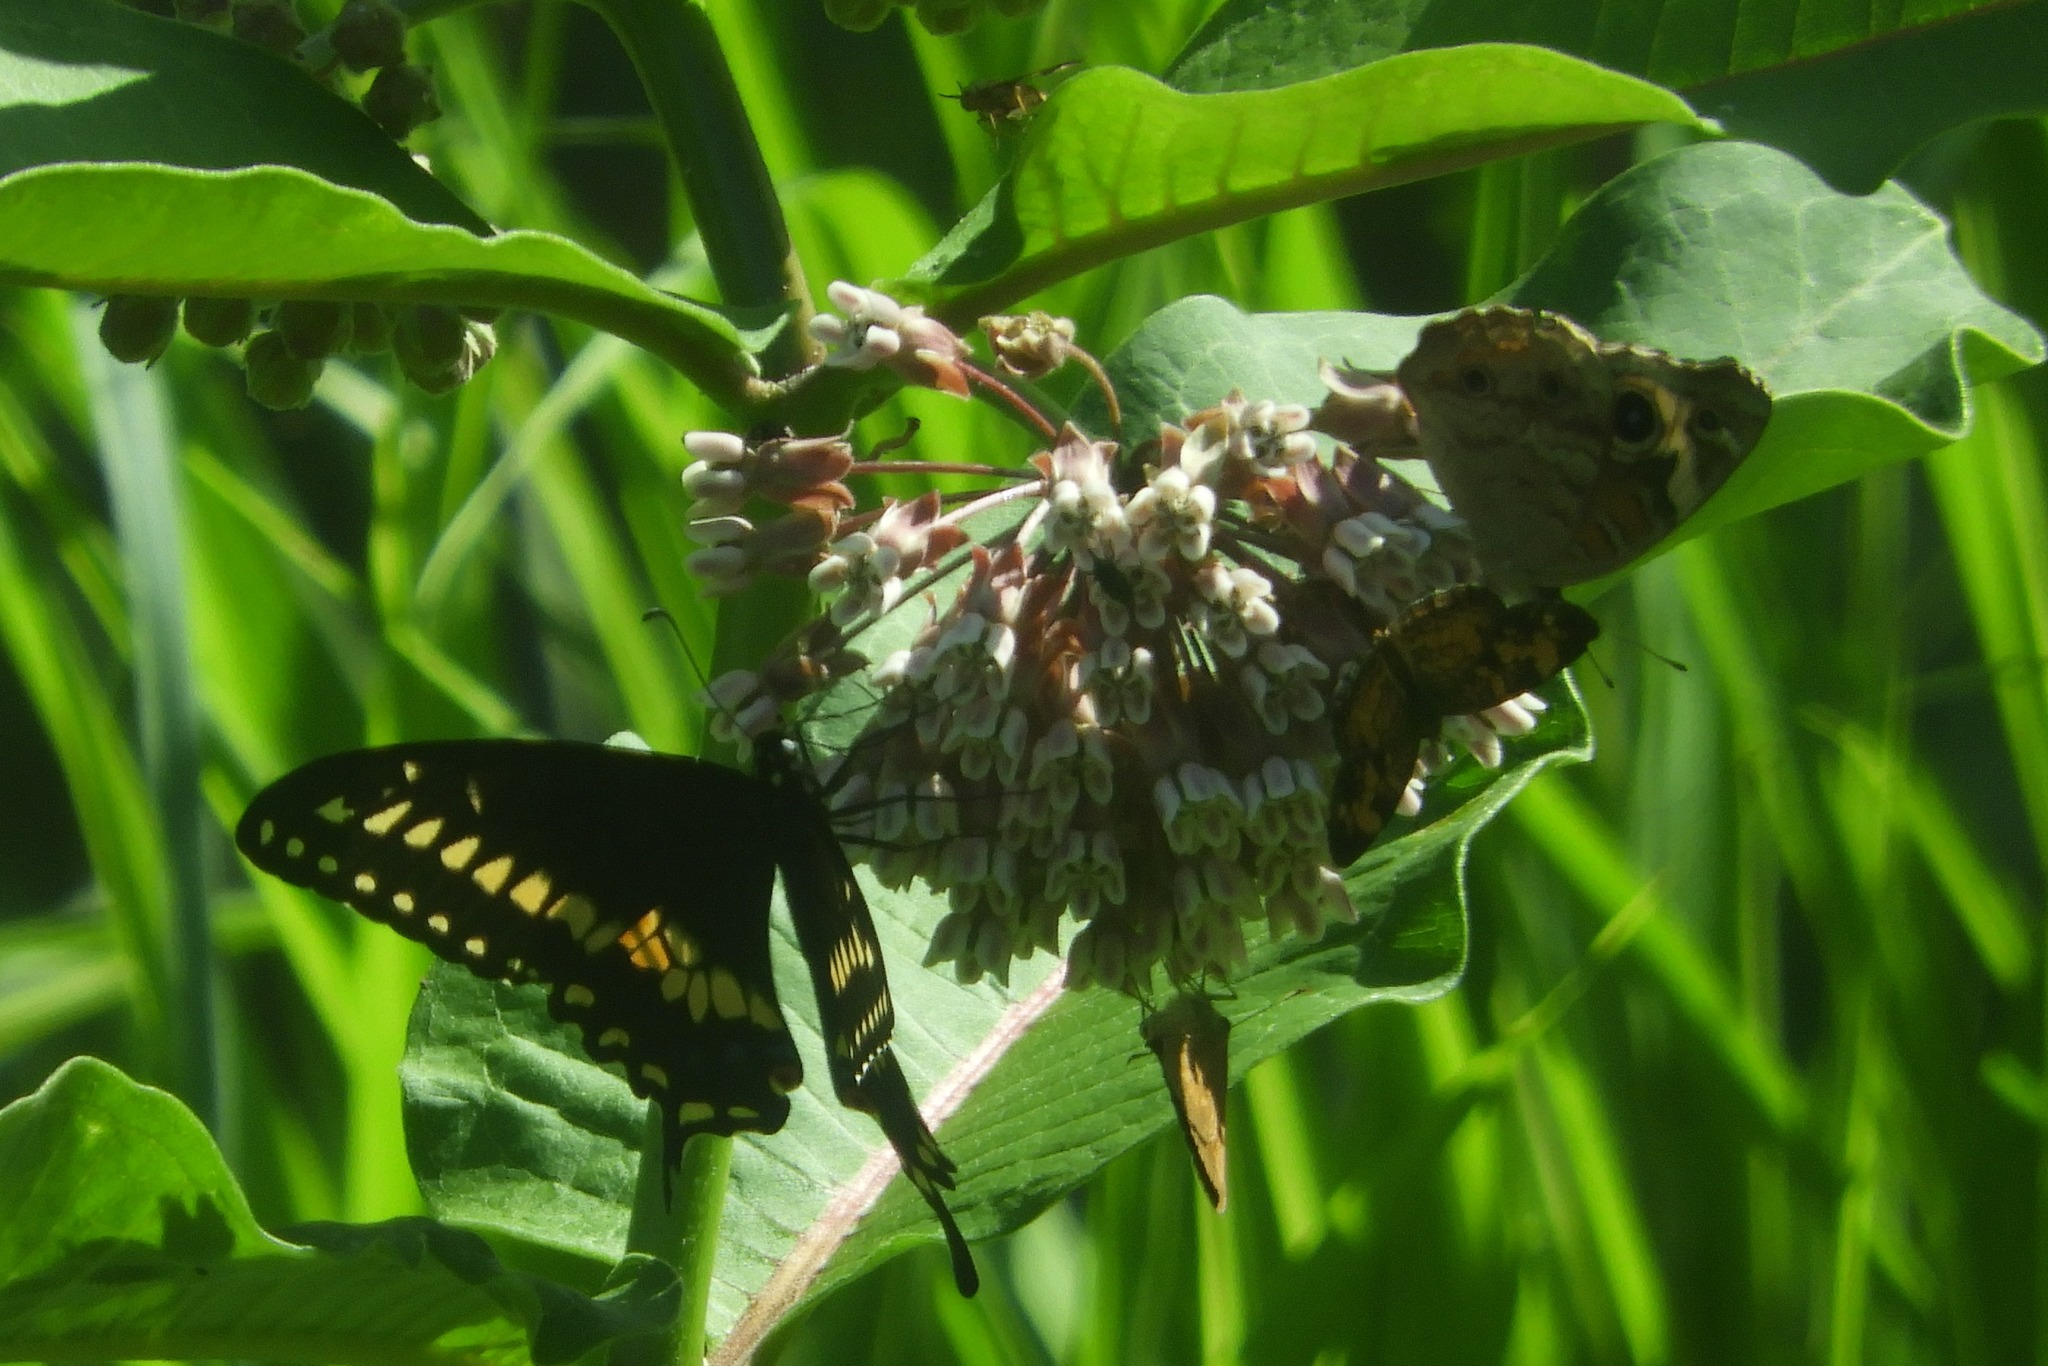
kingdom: Animalia
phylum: Arthropoda
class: Insecta
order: Lepidoptera
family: Nymphalidae
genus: Phyciodes
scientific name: Phyciodes tharos
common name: Pearl crescent
